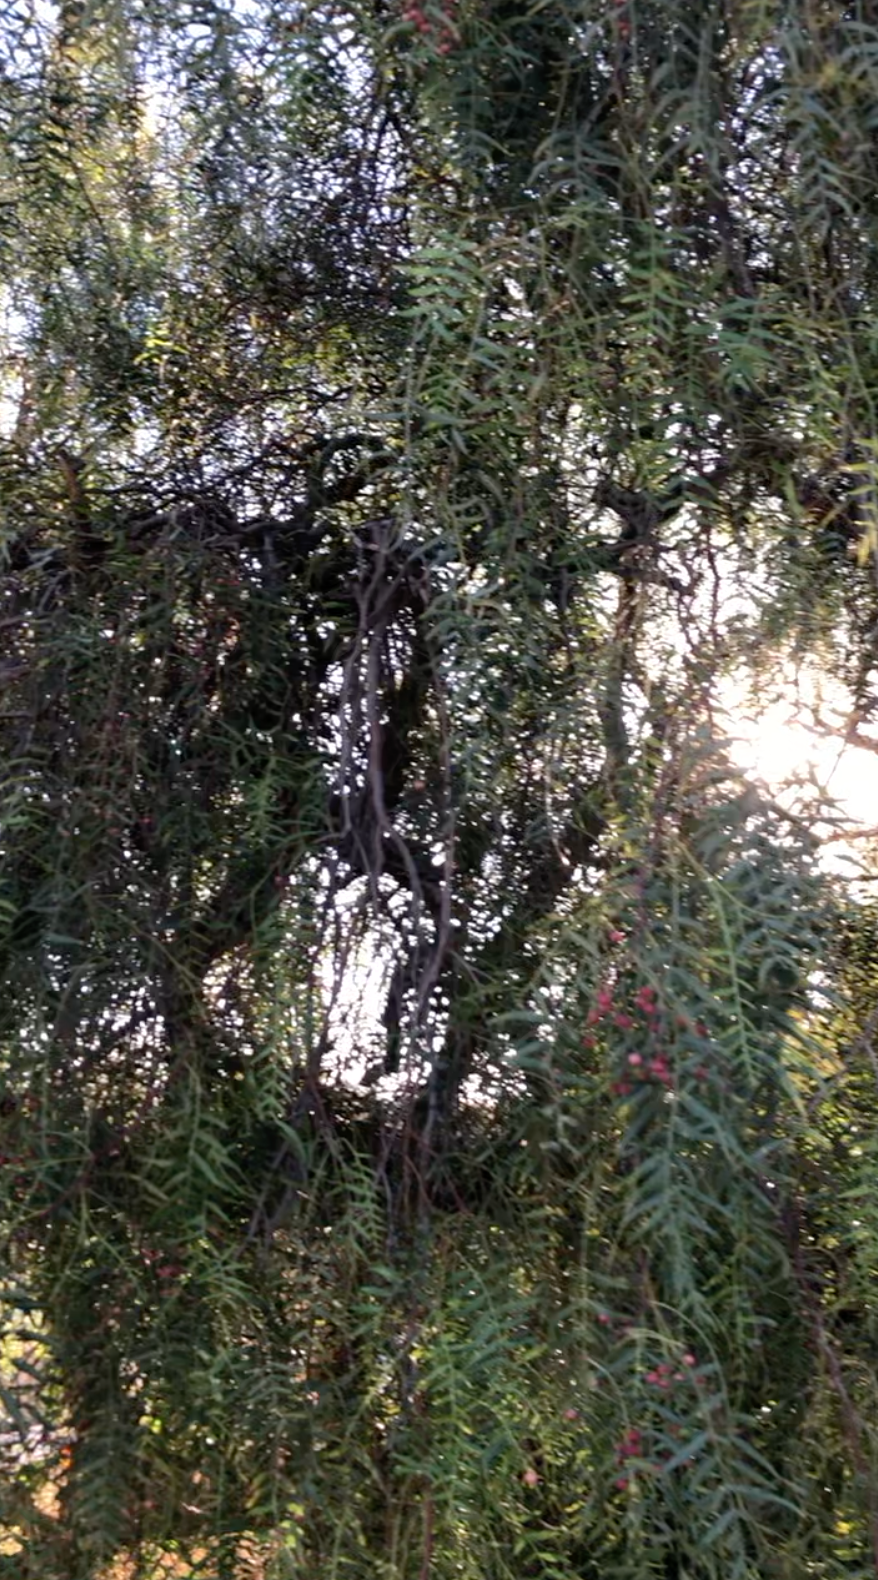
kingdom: Plantae
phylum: Tracheophyta
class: Magnoliopsida
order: Sapindales
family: Anacardiaceae
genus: Schinus
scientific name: Schinus molle
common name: Peruvian peppertree
